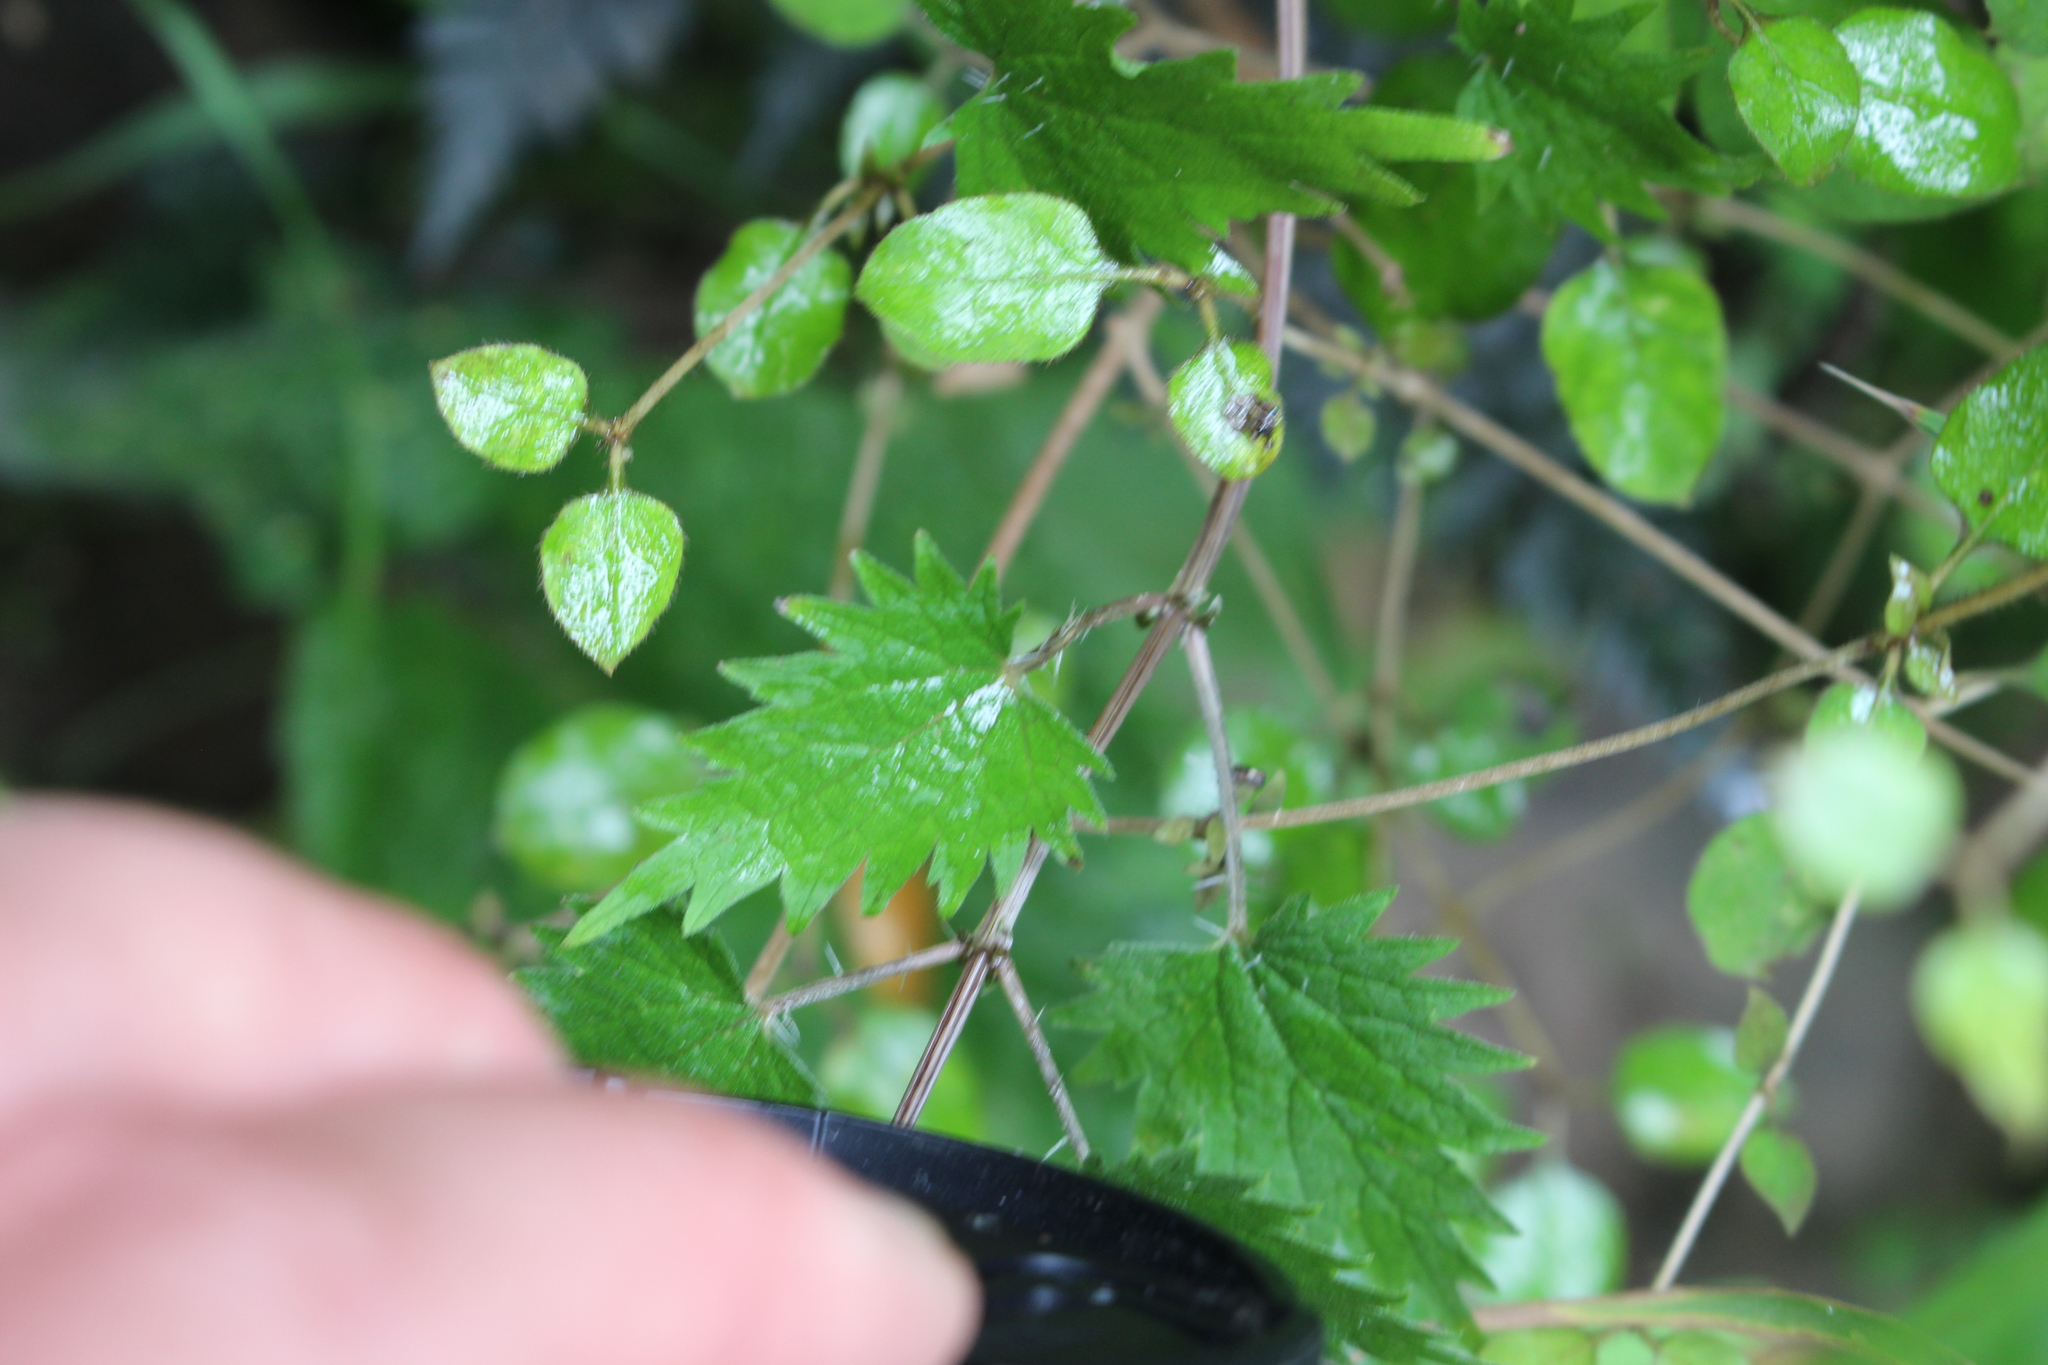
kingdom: Plantae
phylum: Tracheophyta
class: Magnoliopsida
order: Rosales
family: Urticaceae
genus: Urtica
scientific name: Urtica sykesii
